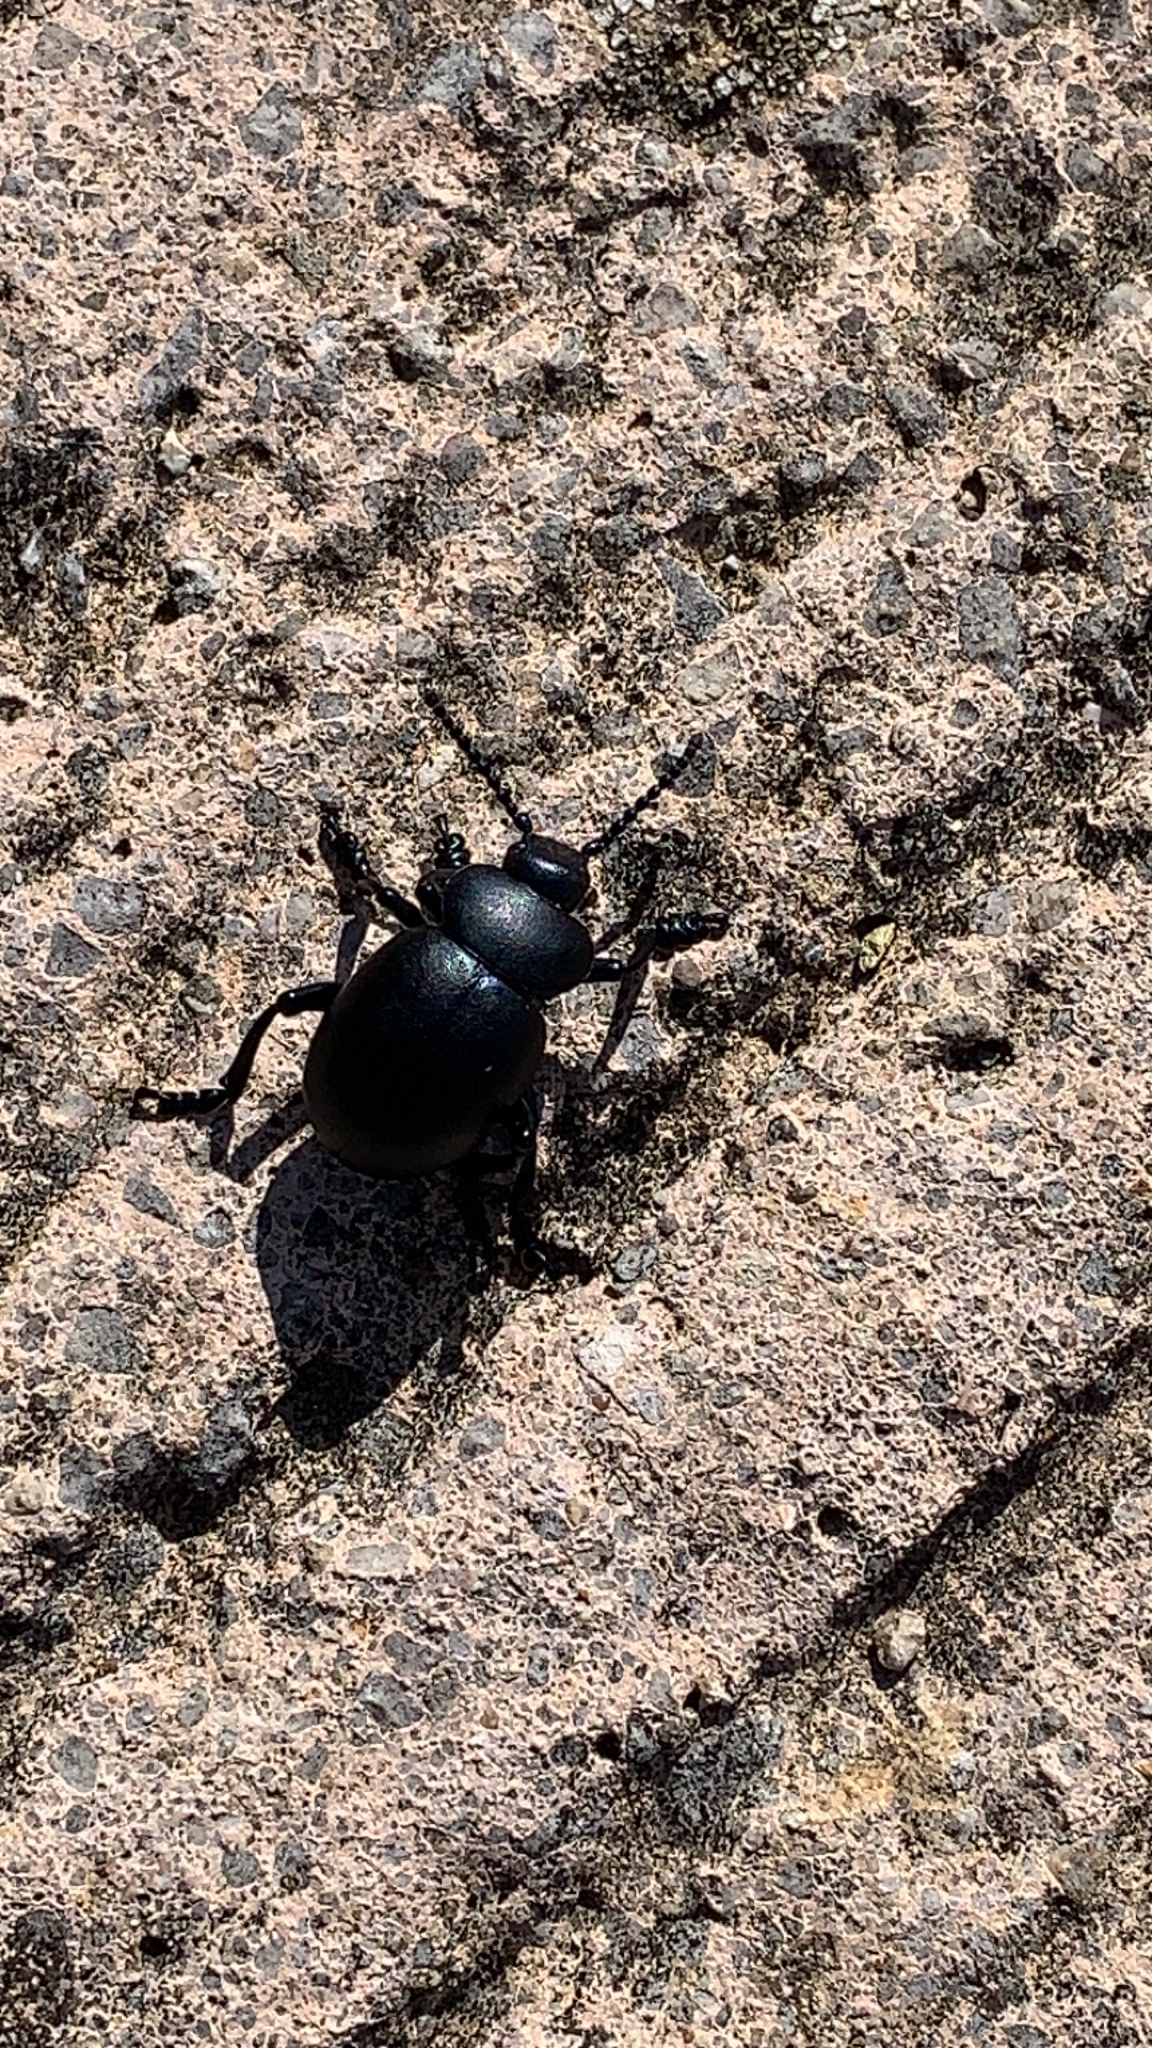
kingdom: Animalia
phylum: Arthropoda
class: Insecta
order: Coleoptera
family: Chrysomelidae
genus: Timarcha
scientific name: Timarcha tenebricosa
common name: Bloody-nosed beetle
